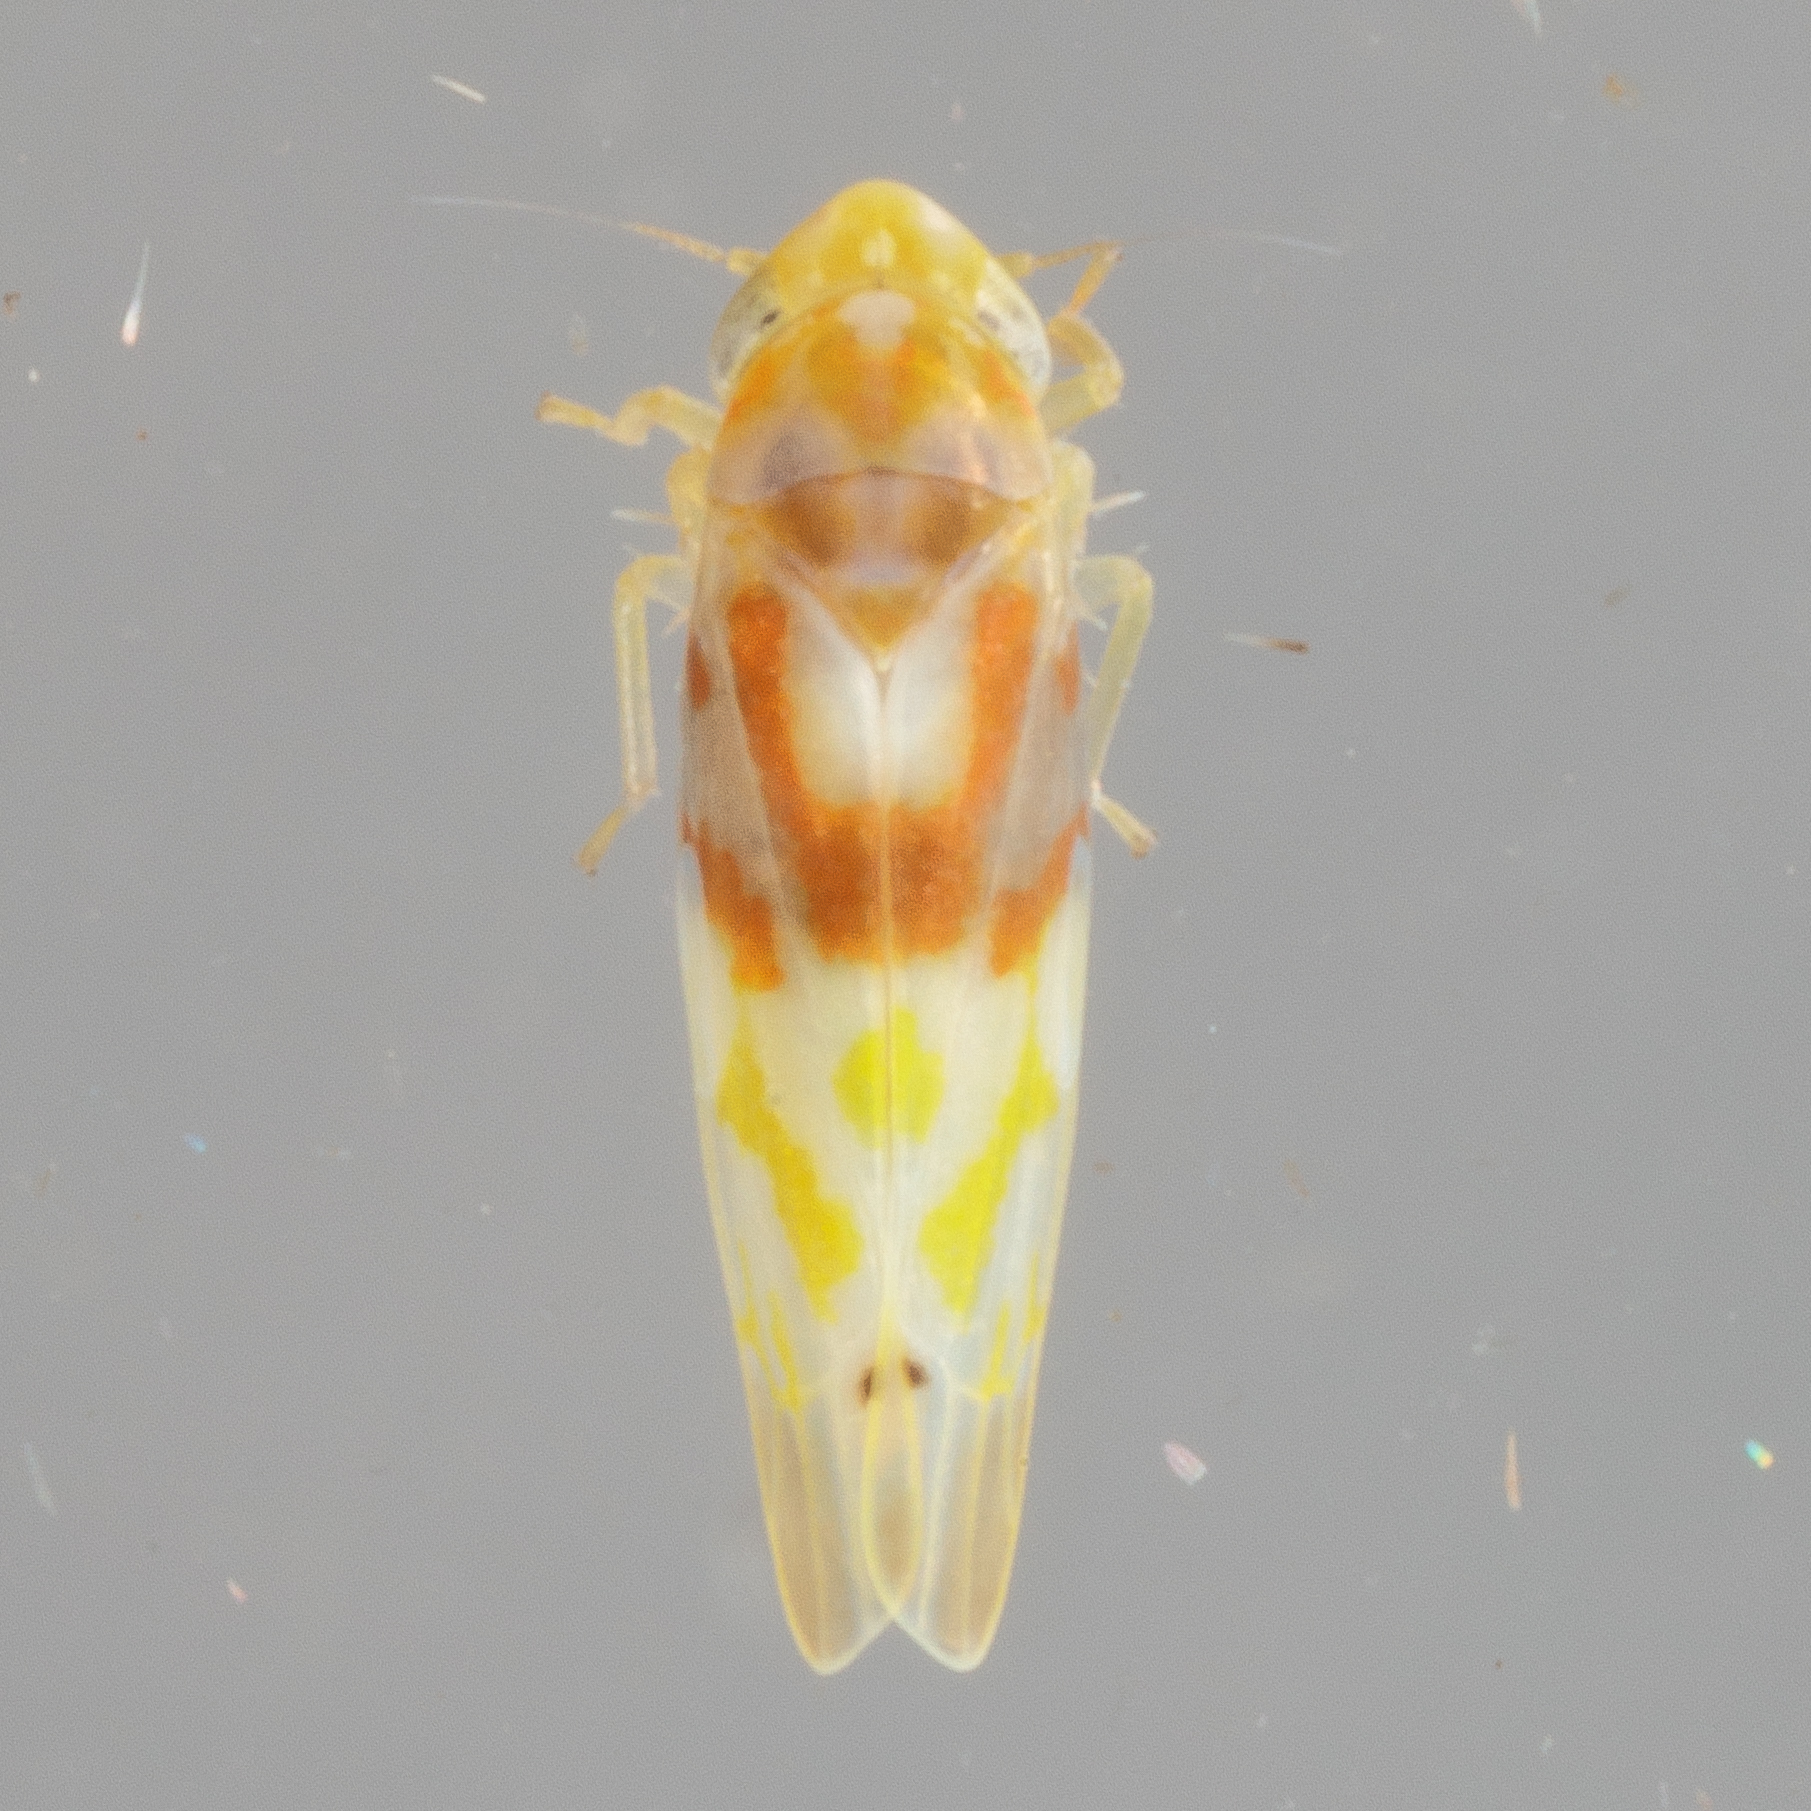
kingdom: Animalia
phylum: Arthropoda
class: Insecta
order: Hemiptera
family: Cicadellidae
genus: Eratoneura
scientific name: Eratoneura affinis
